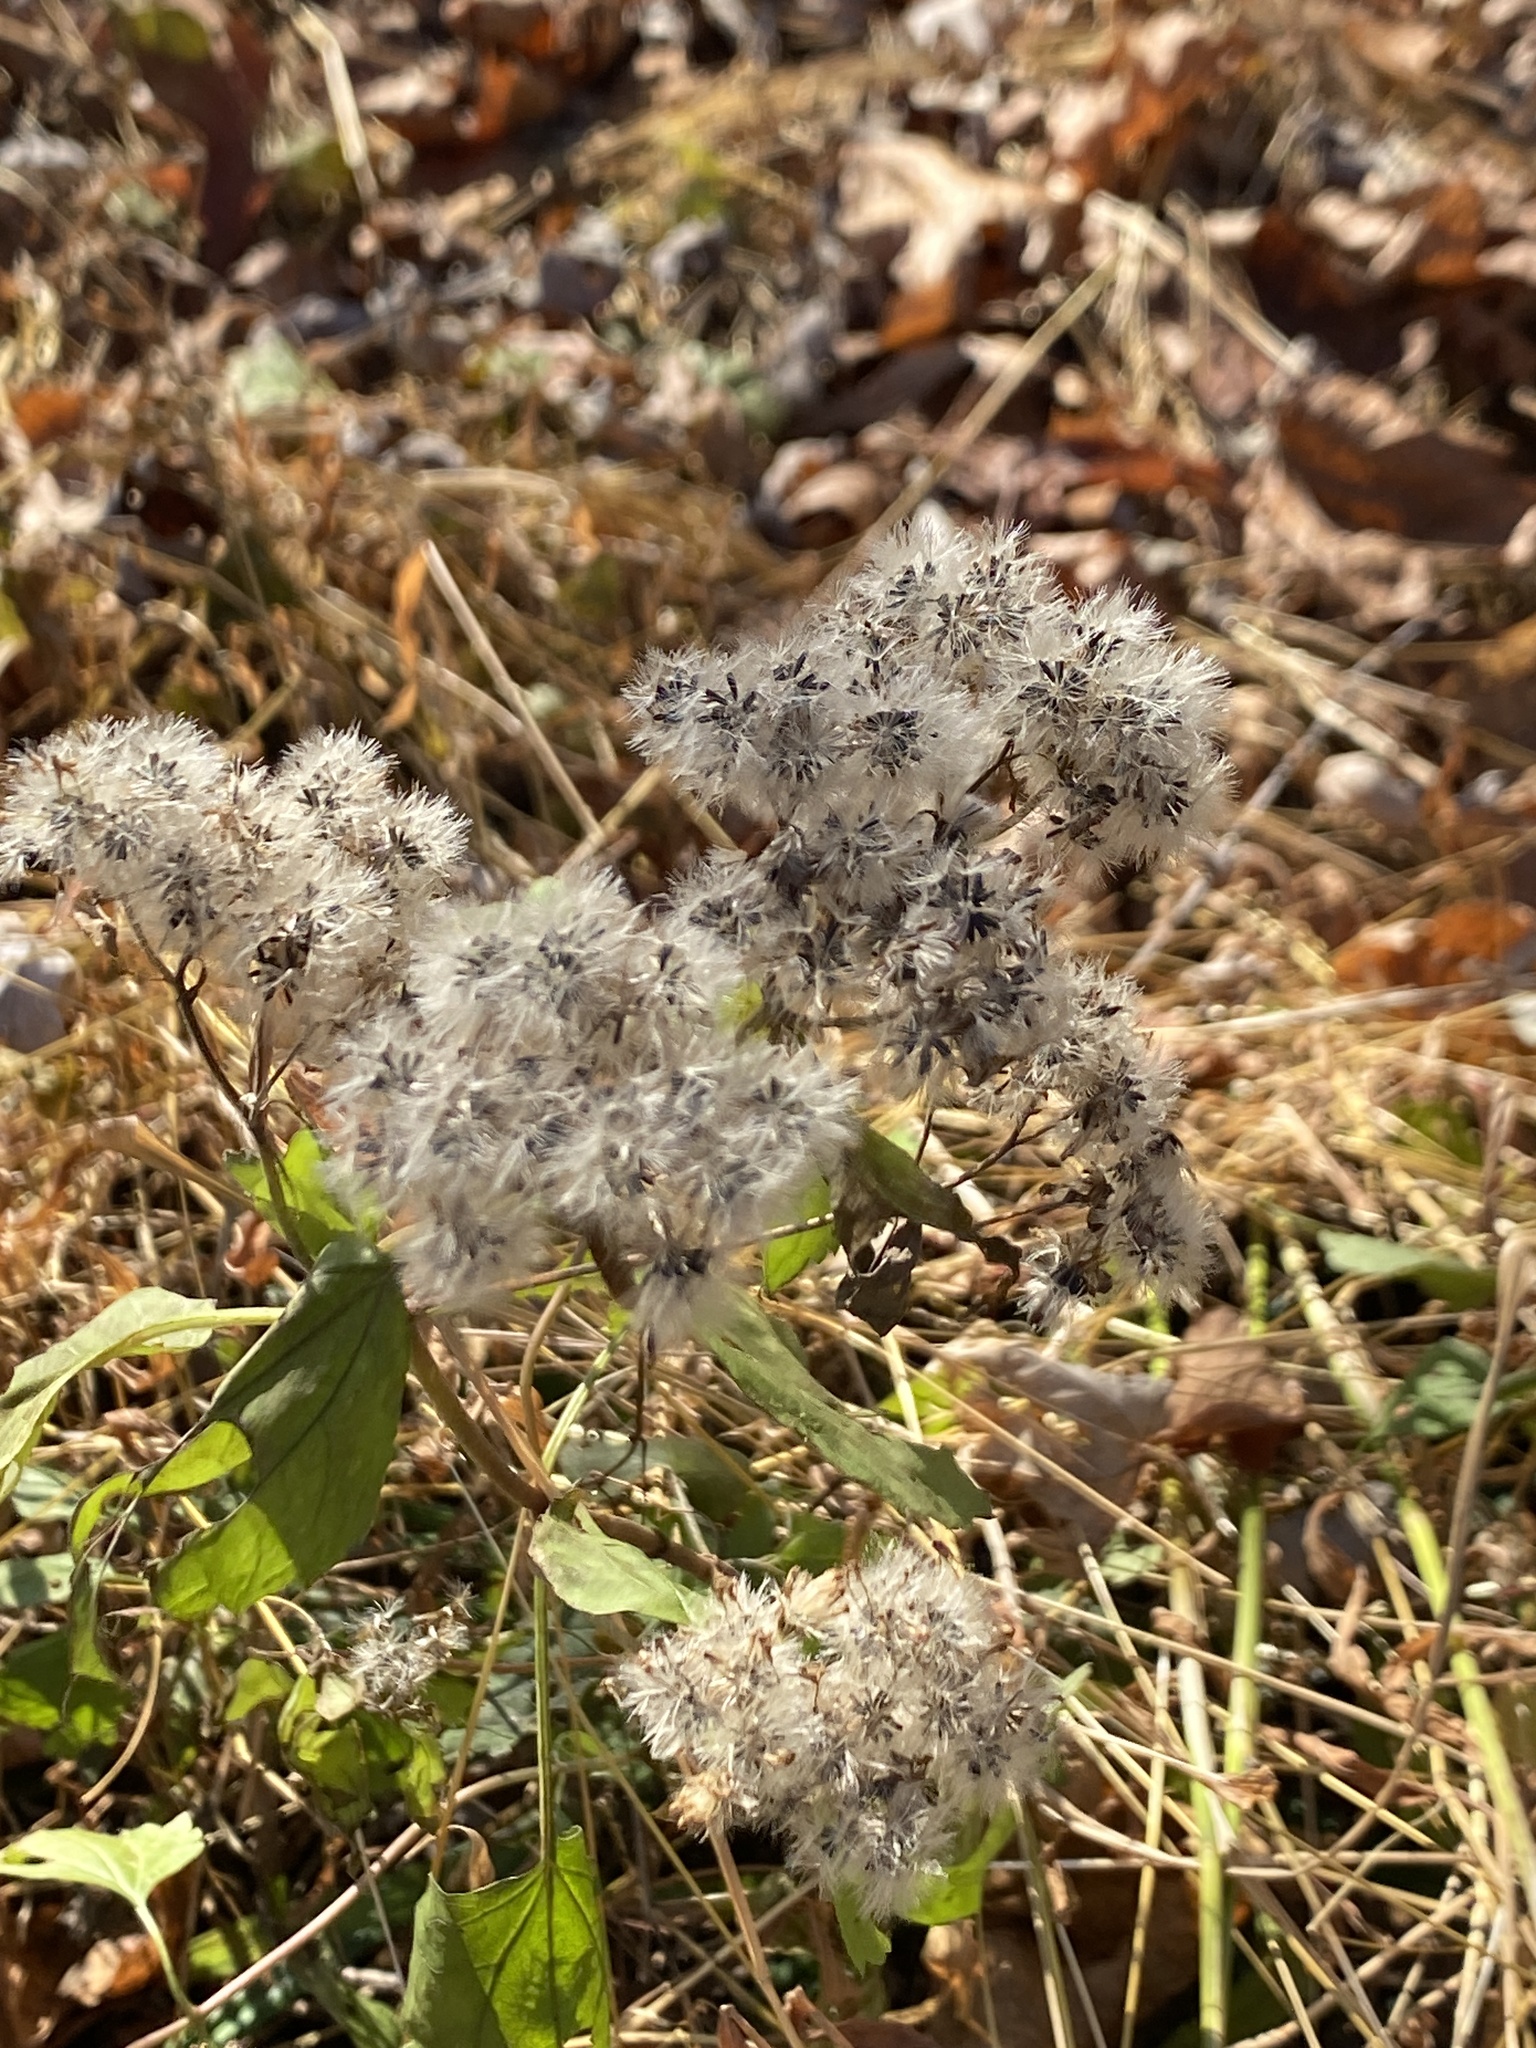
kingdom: Plantae
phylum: Tracheophyta
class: Magnoliopsida
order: Asterales
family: Asteraceae
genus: Ageratina
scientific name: Ageratina altissima
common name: White snakeroot
